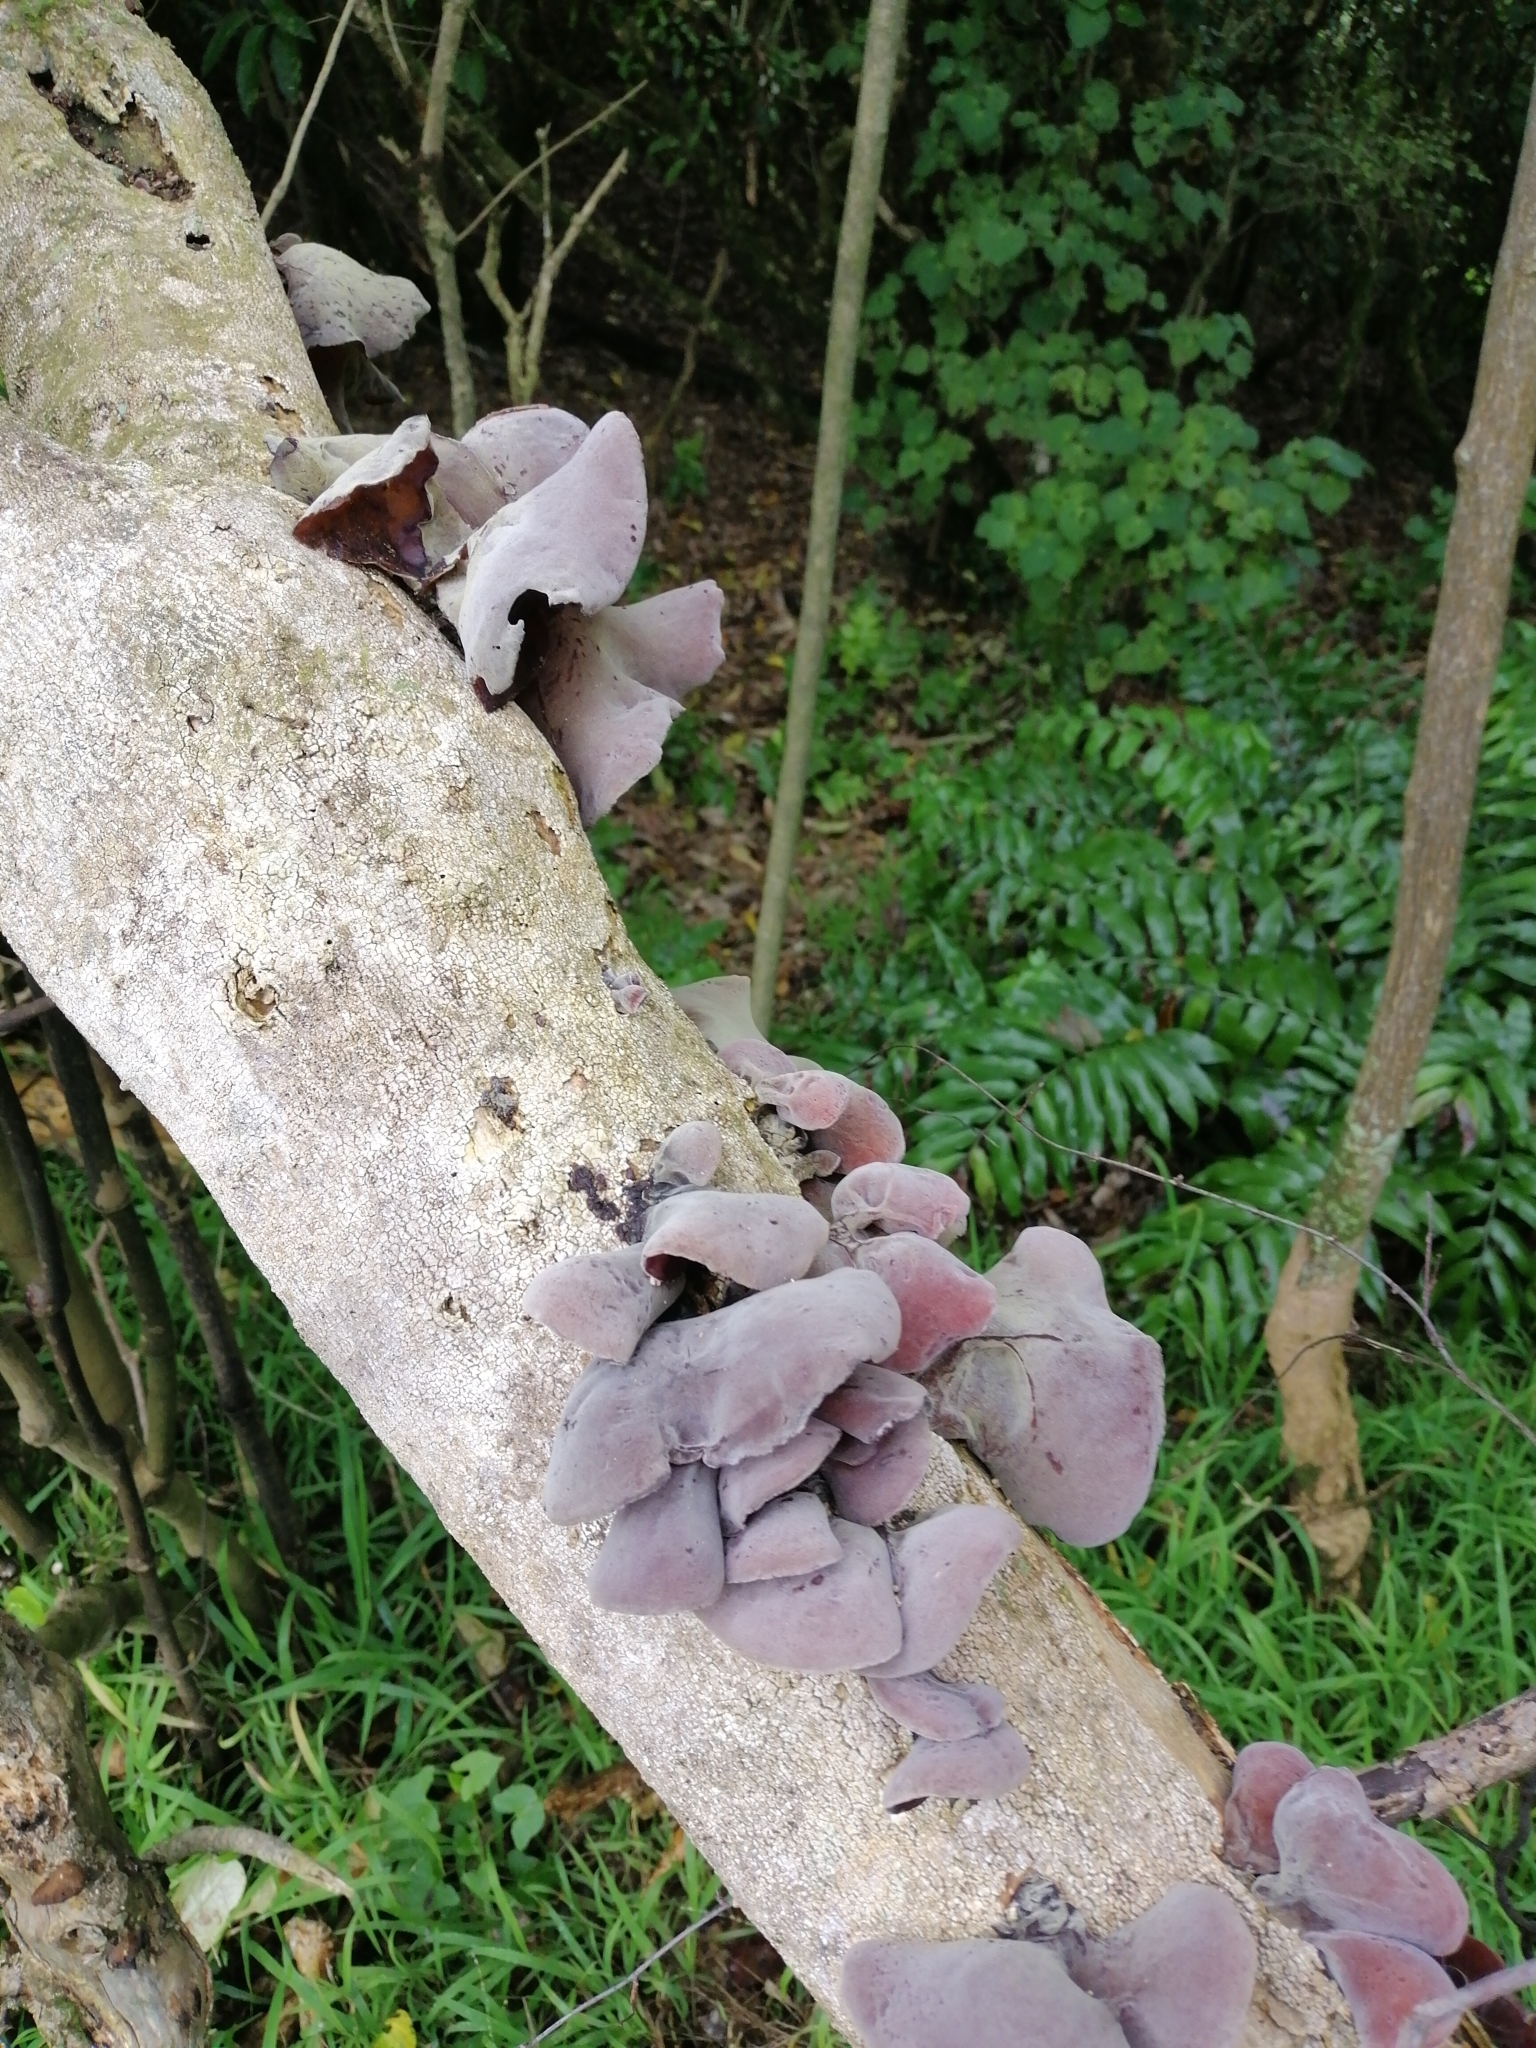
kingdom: Fungi
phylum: Basidiomycota
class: Agaricomycetes
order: Auriculariales
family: Auriculariaceae
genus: Auricularia
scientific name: Auricularia cornea
